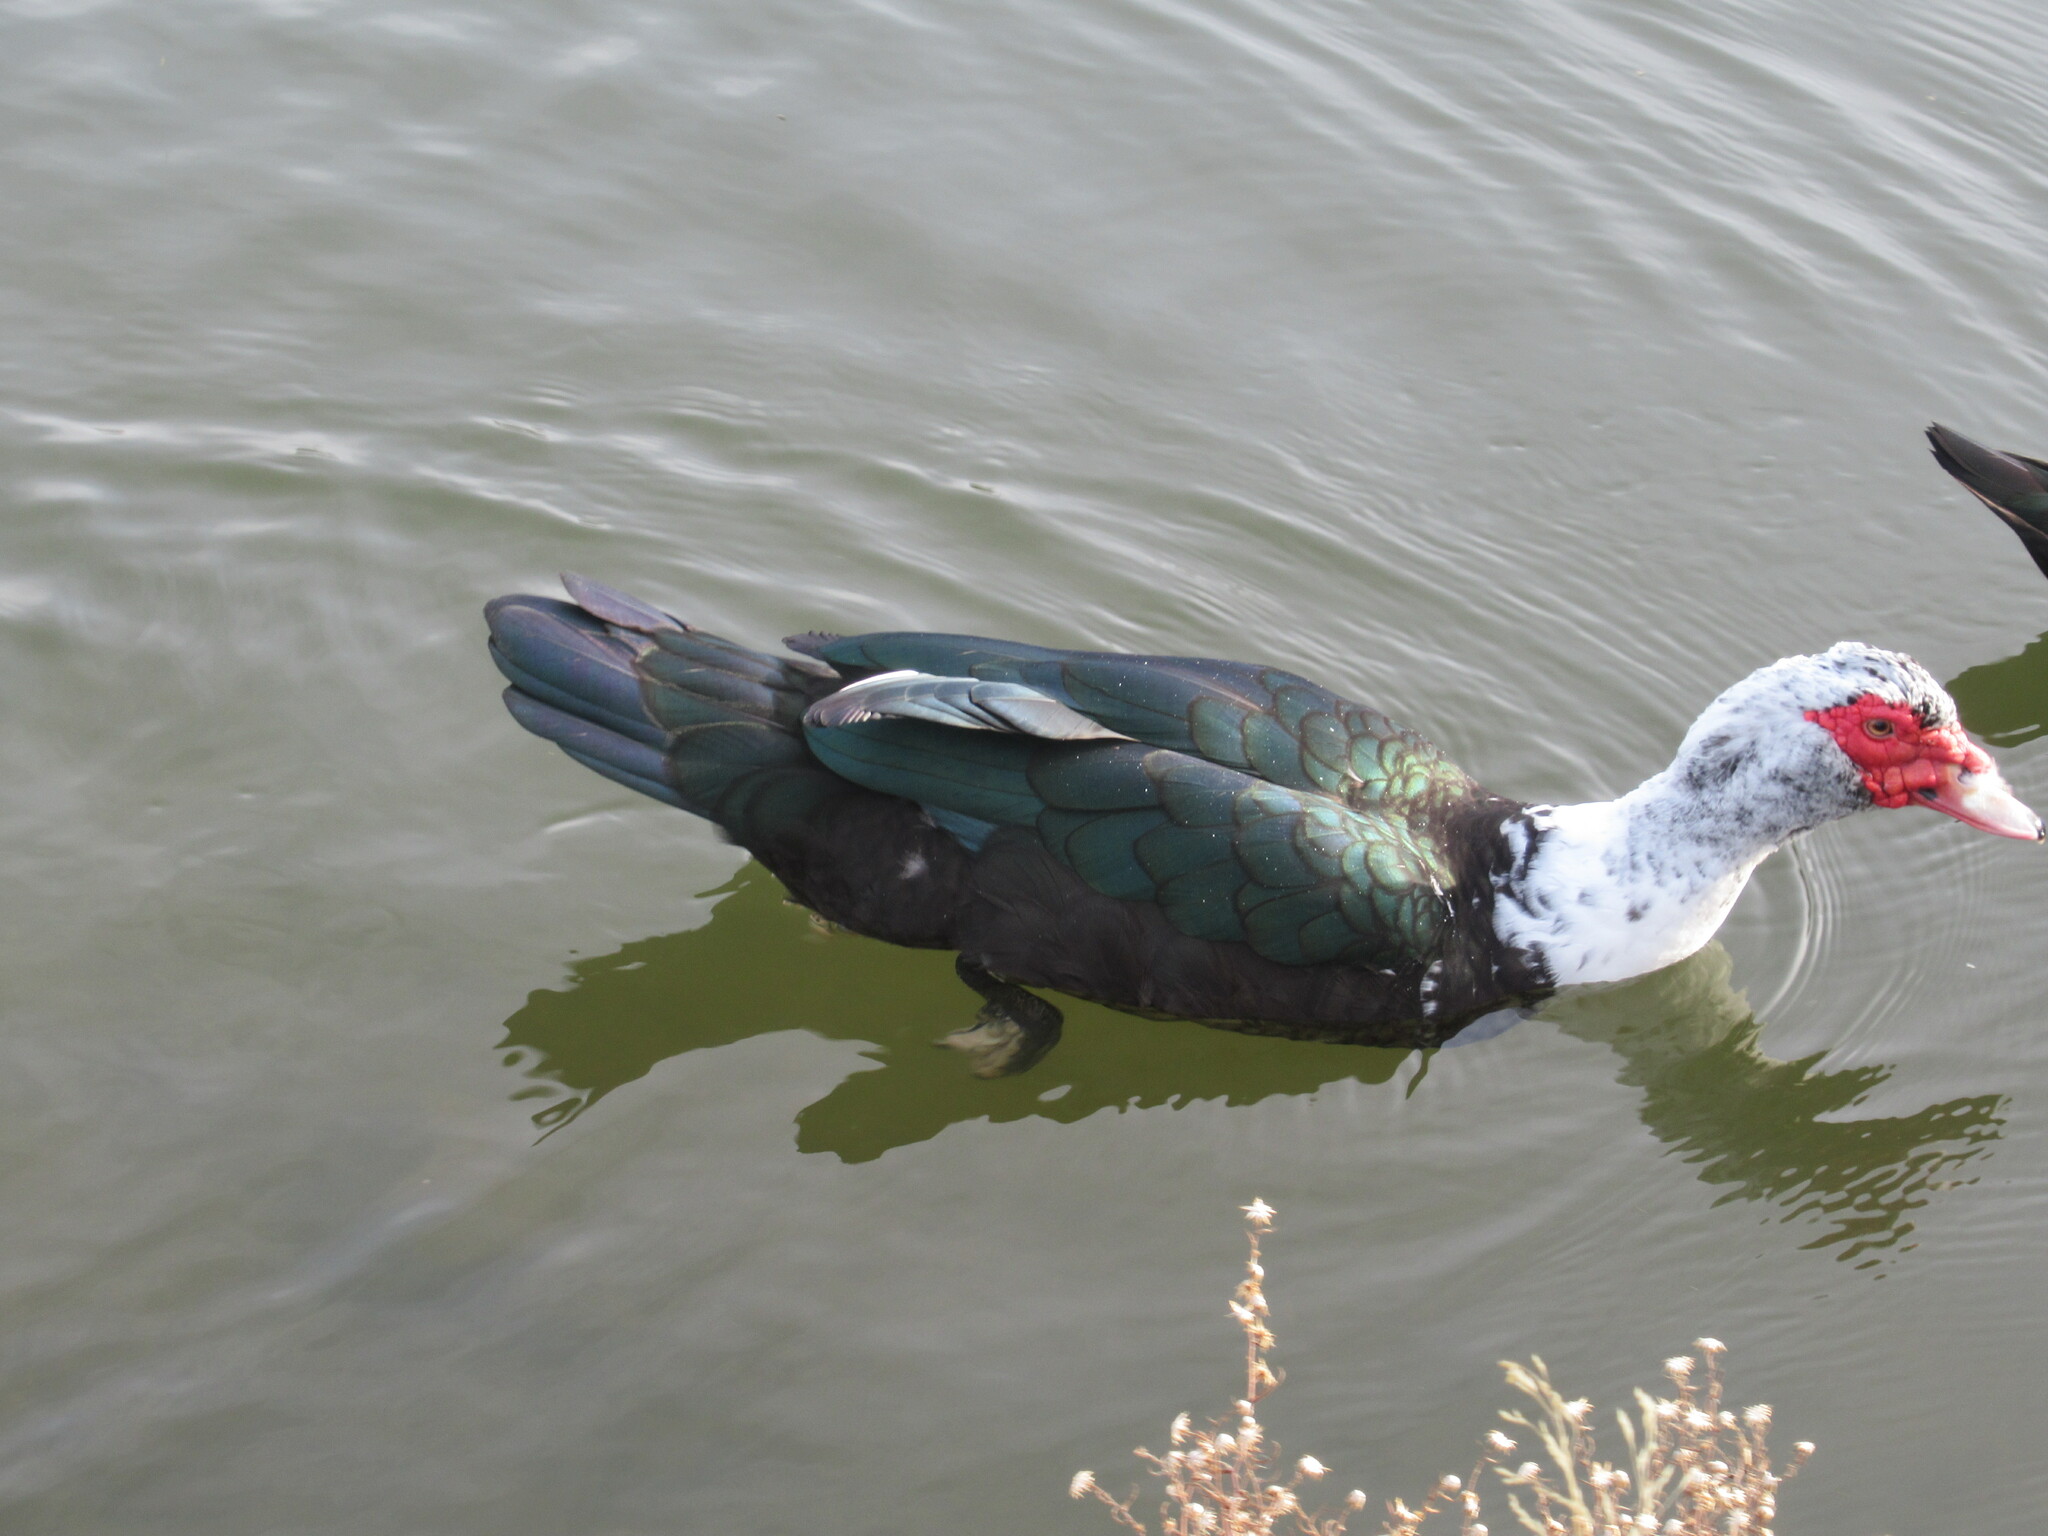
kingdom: Animalia
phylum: Chordata
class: Aves
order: Anseriformes
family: Anatidae
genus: Cairina
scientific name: Cairina moschata
